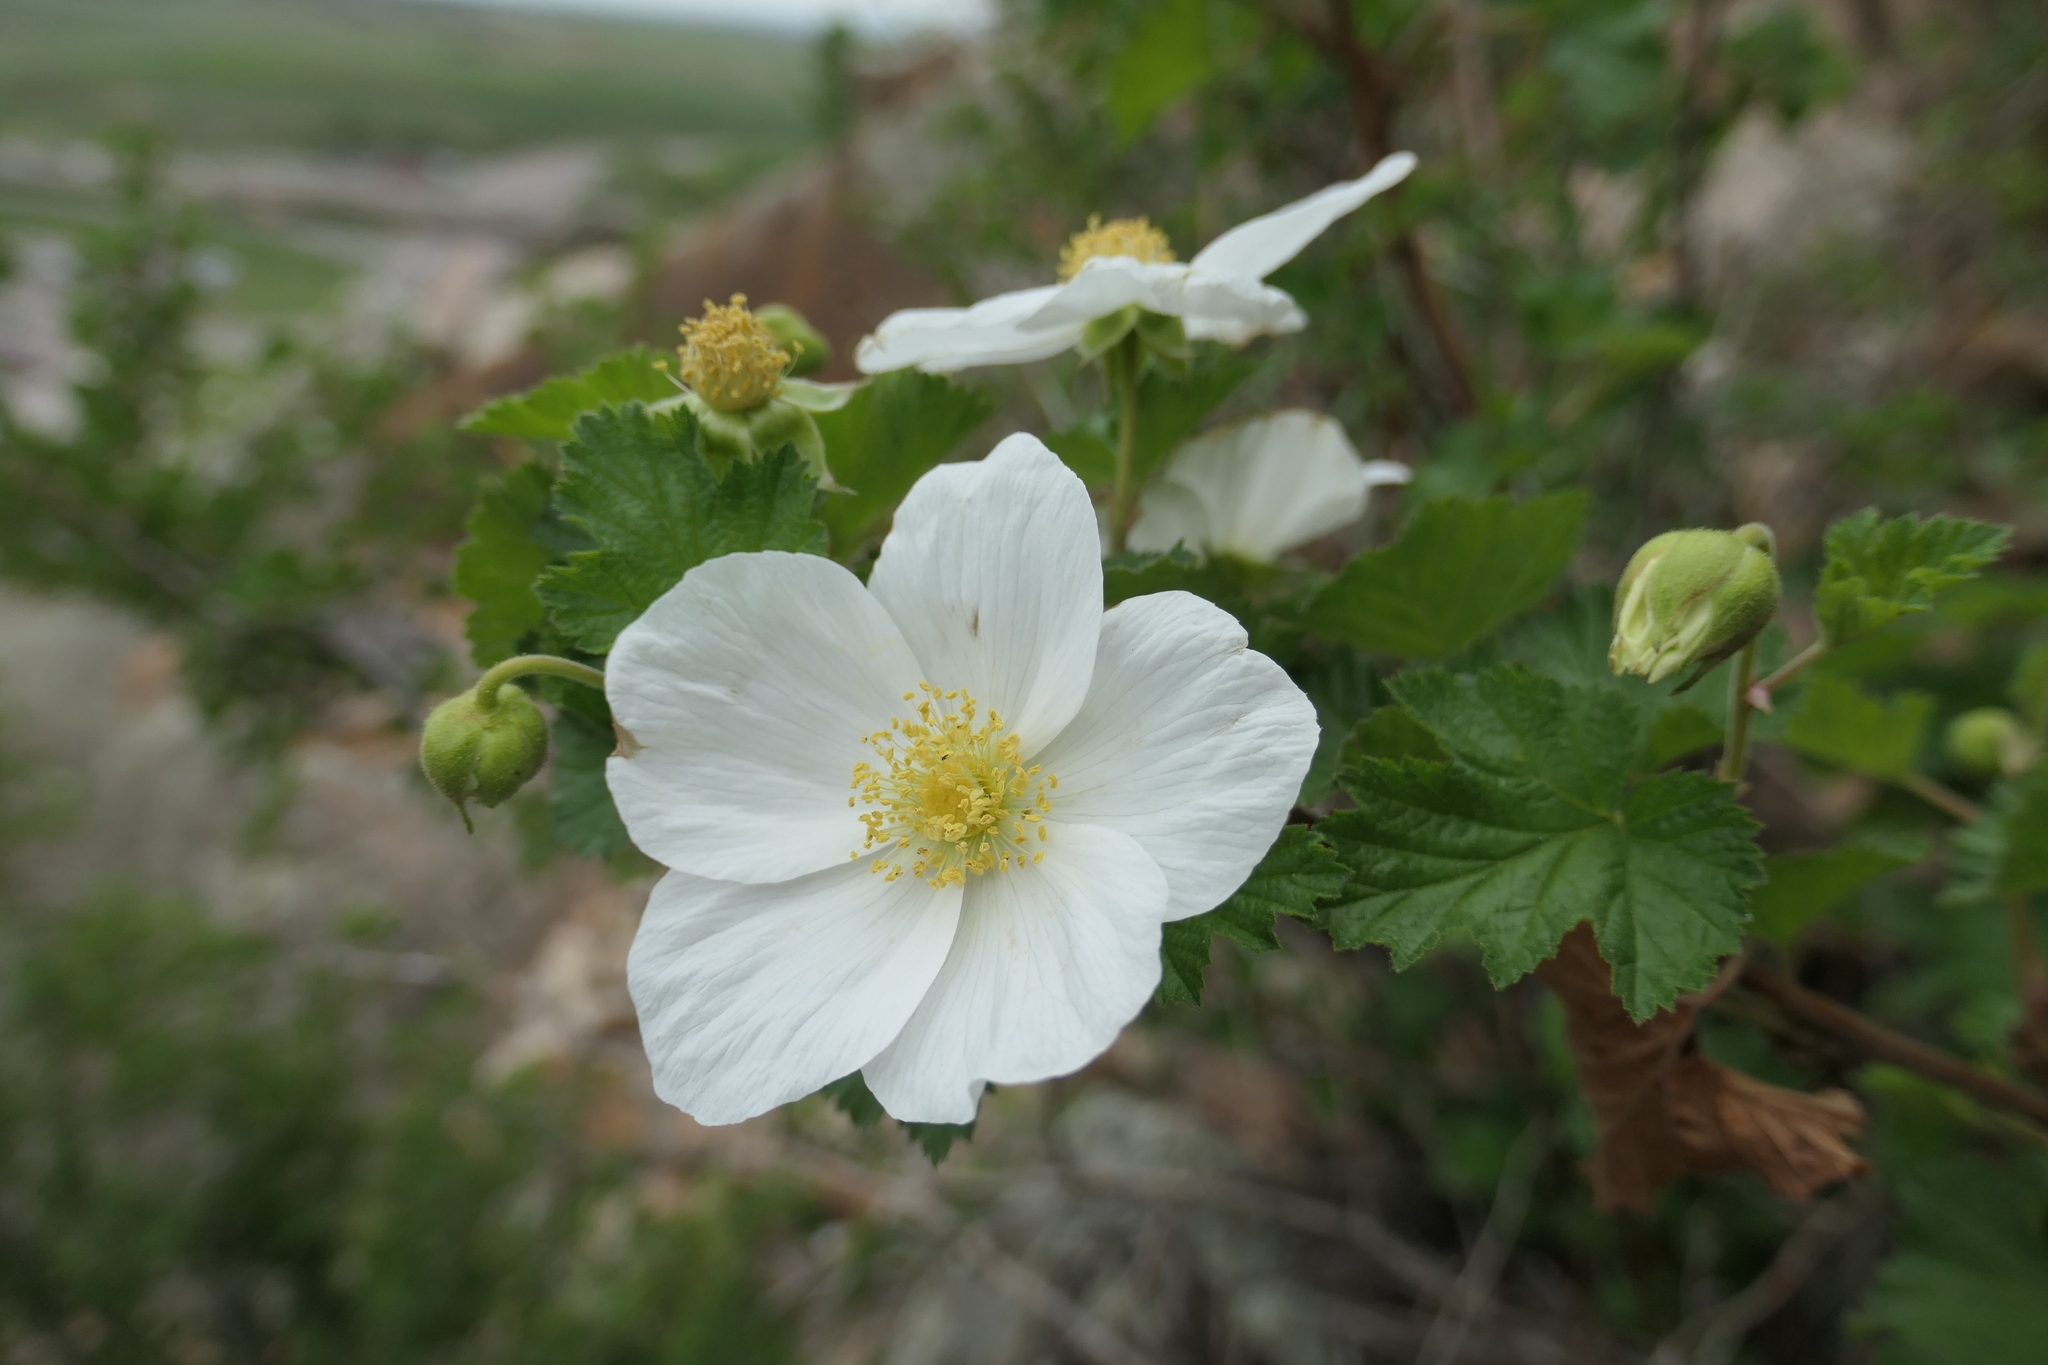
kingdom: Plantae
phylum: Tracheophyta
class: Magnoliopsida
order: Rosales
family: Rosaceae
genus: Rubus
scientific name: Rubus deliciosus
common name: Rocky mountain raspberry
